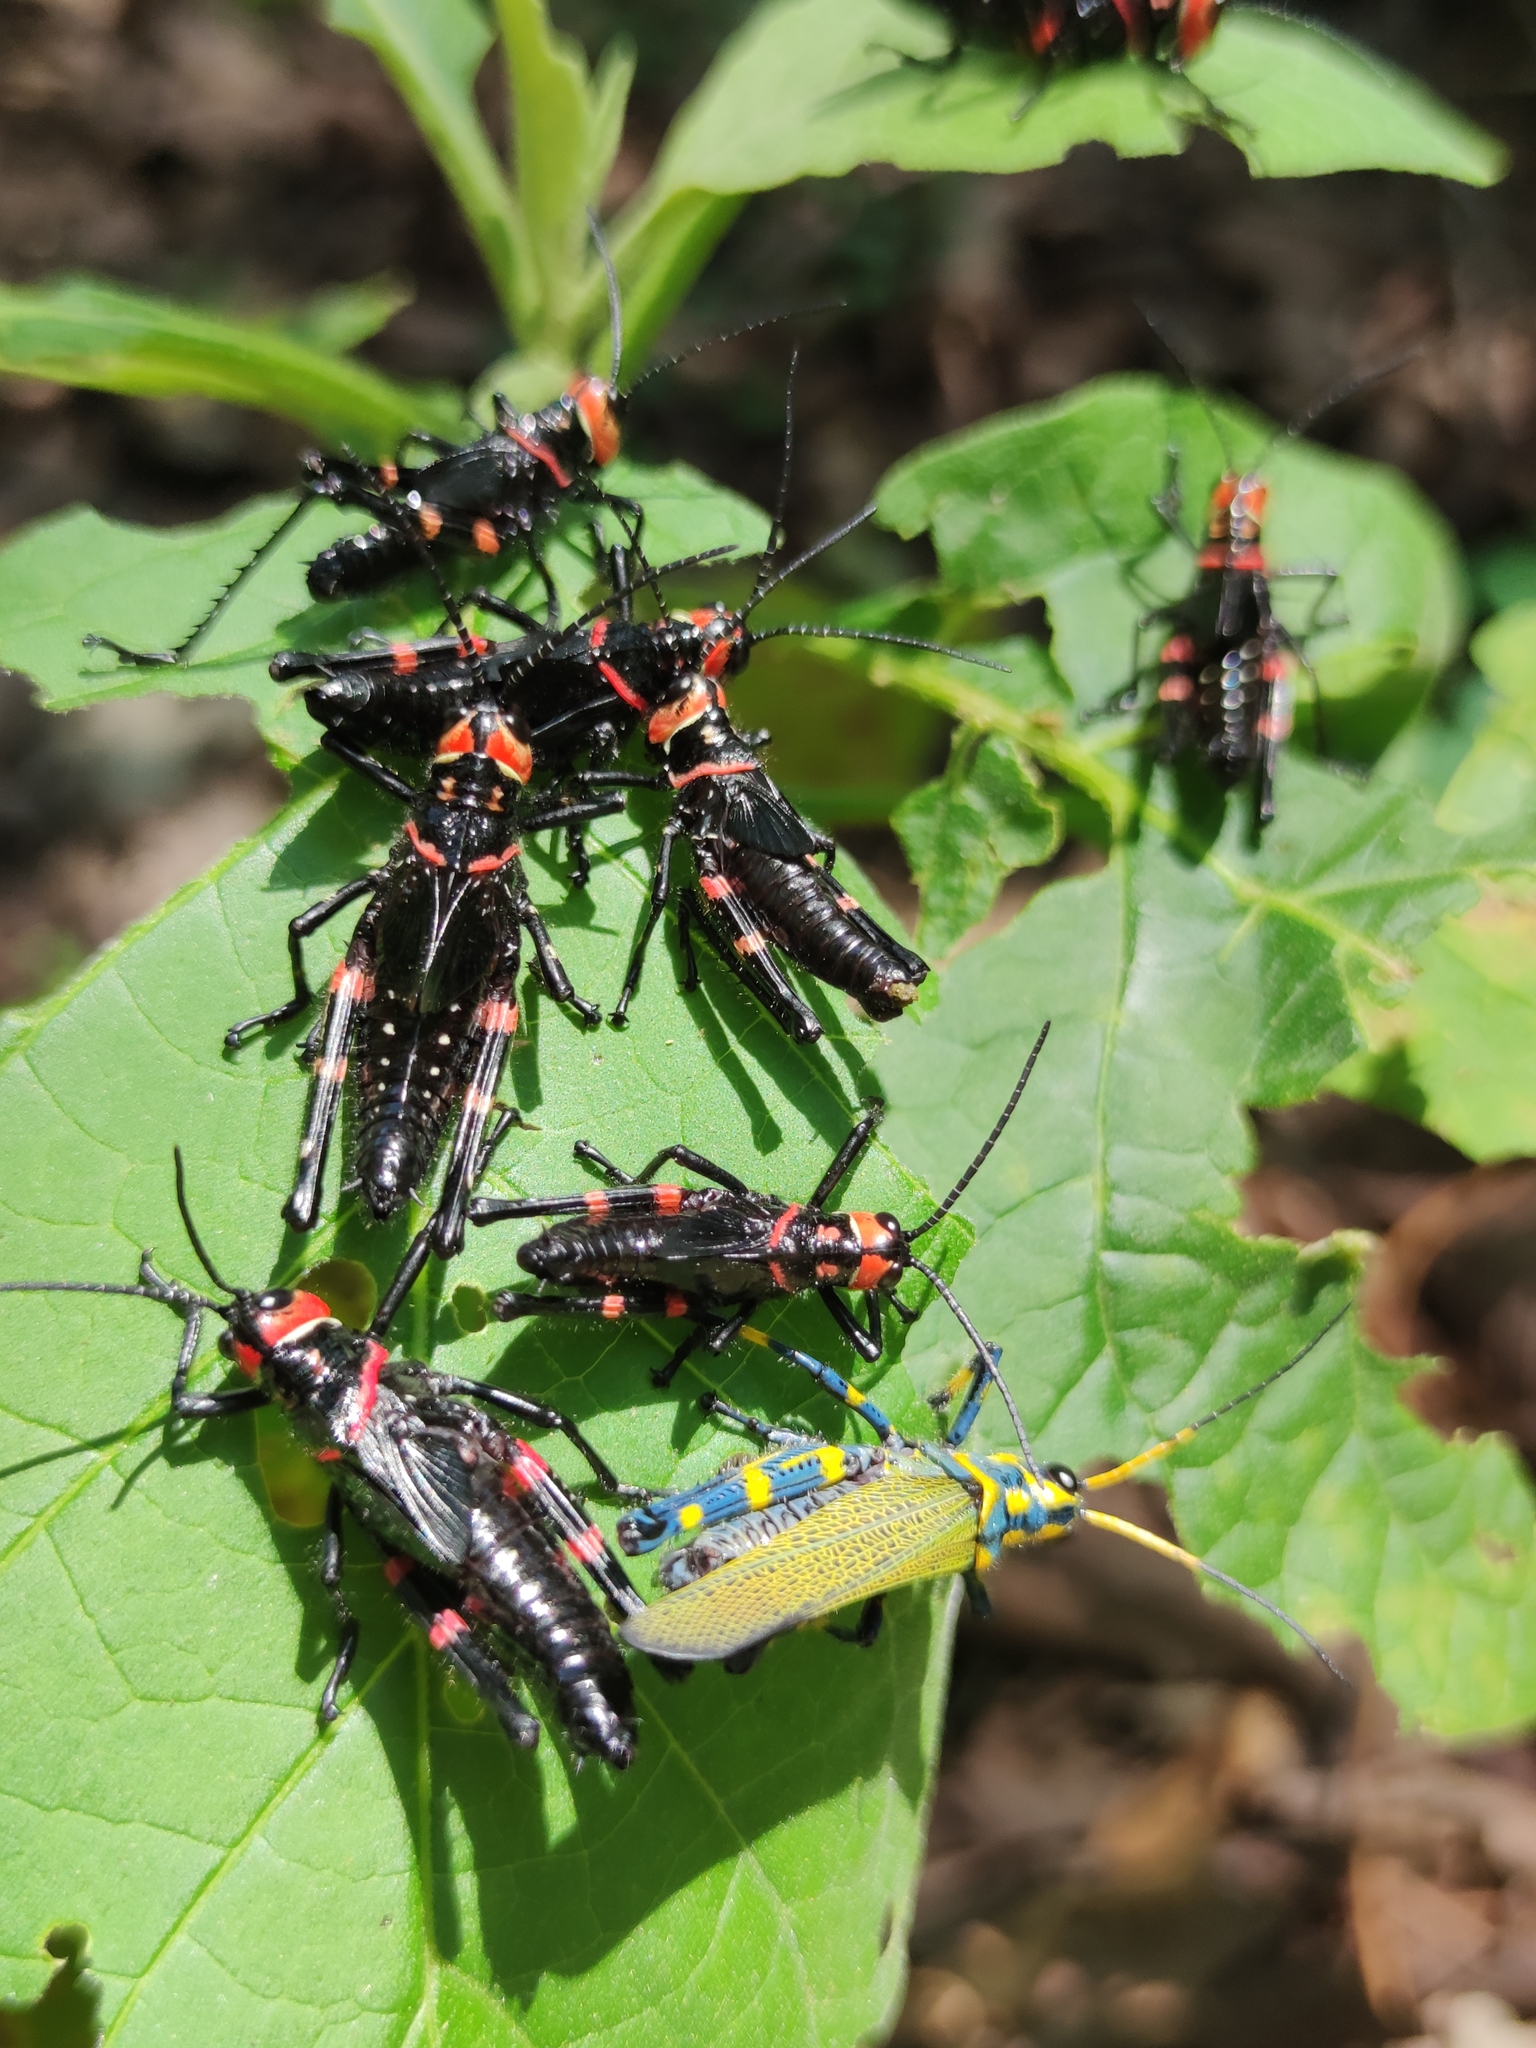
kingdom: Animalia
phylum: Arthropoda
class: Insecta
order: Orthoptera
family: Romaleidae
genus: Chromacris
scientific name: Chromacris colorata
